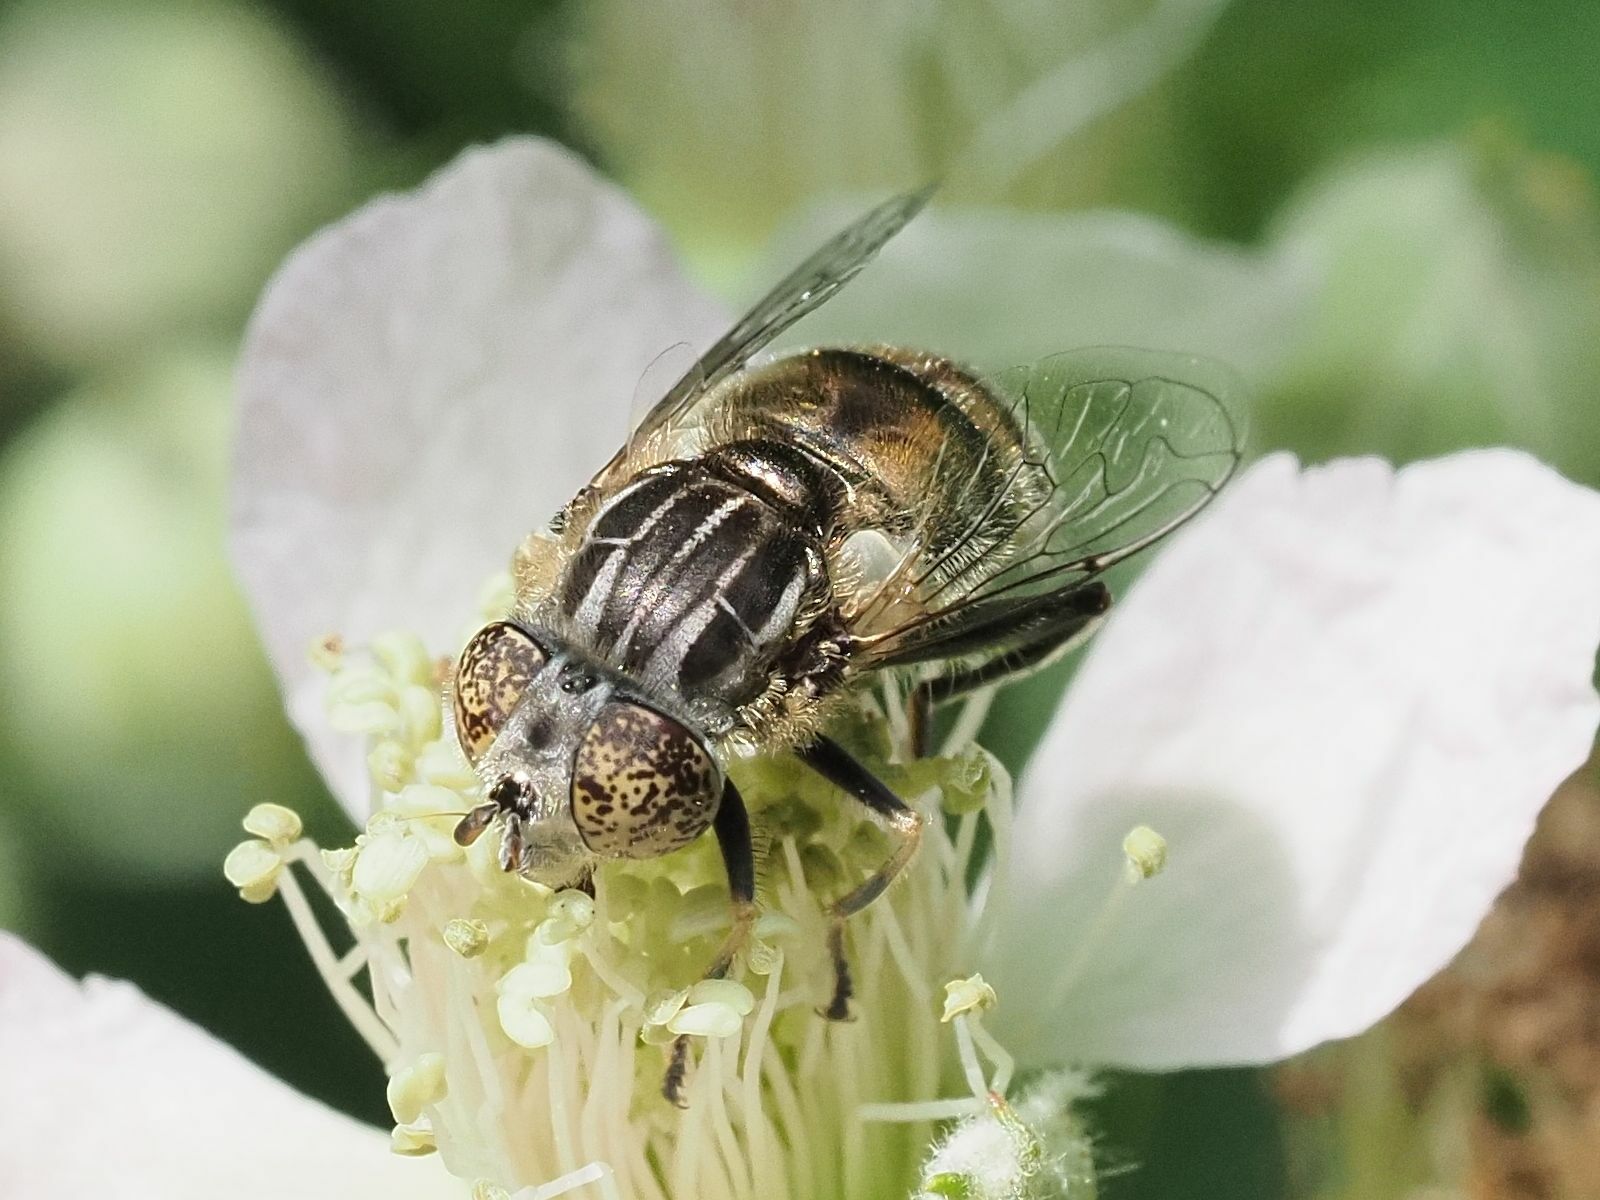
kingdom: Animalia
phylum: Arthropoda
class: Insecta
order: Diptera
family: Syrphidae
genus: Eristalinus
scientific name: Eristalinus sepulchralis
